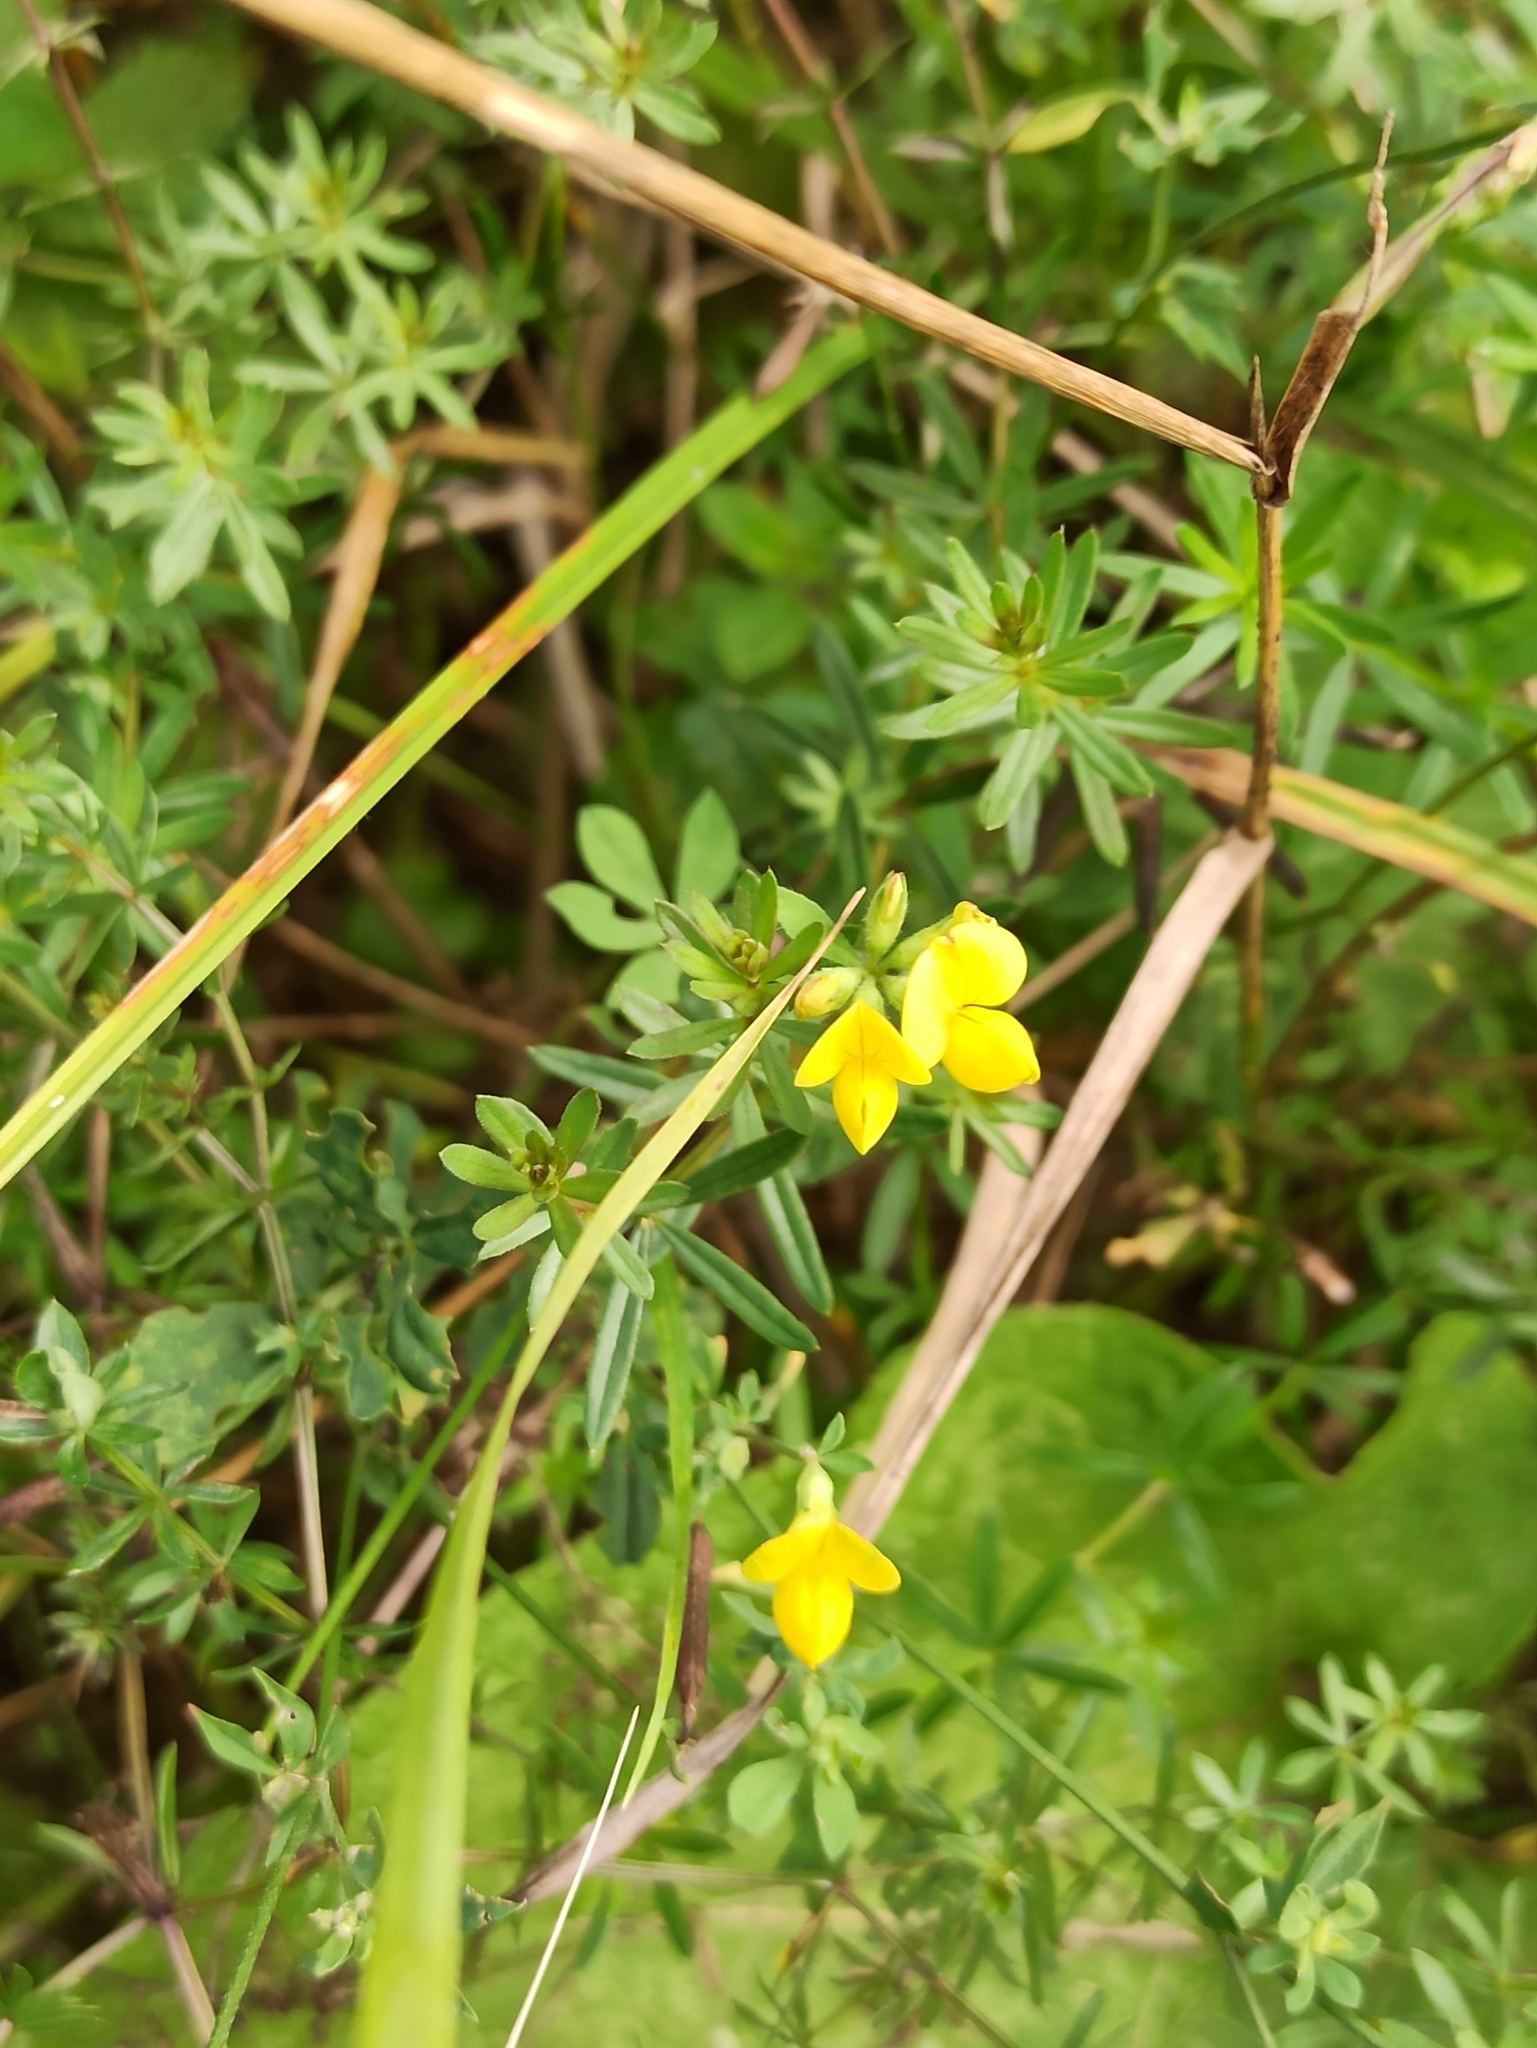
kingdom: Plantae
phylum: Tracheophyta
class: Magnoliopsida
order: Fabales
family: Fabaceae
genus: Lotus
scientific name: Lotus corniculatus
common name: Common bird's-foot-trefoil
